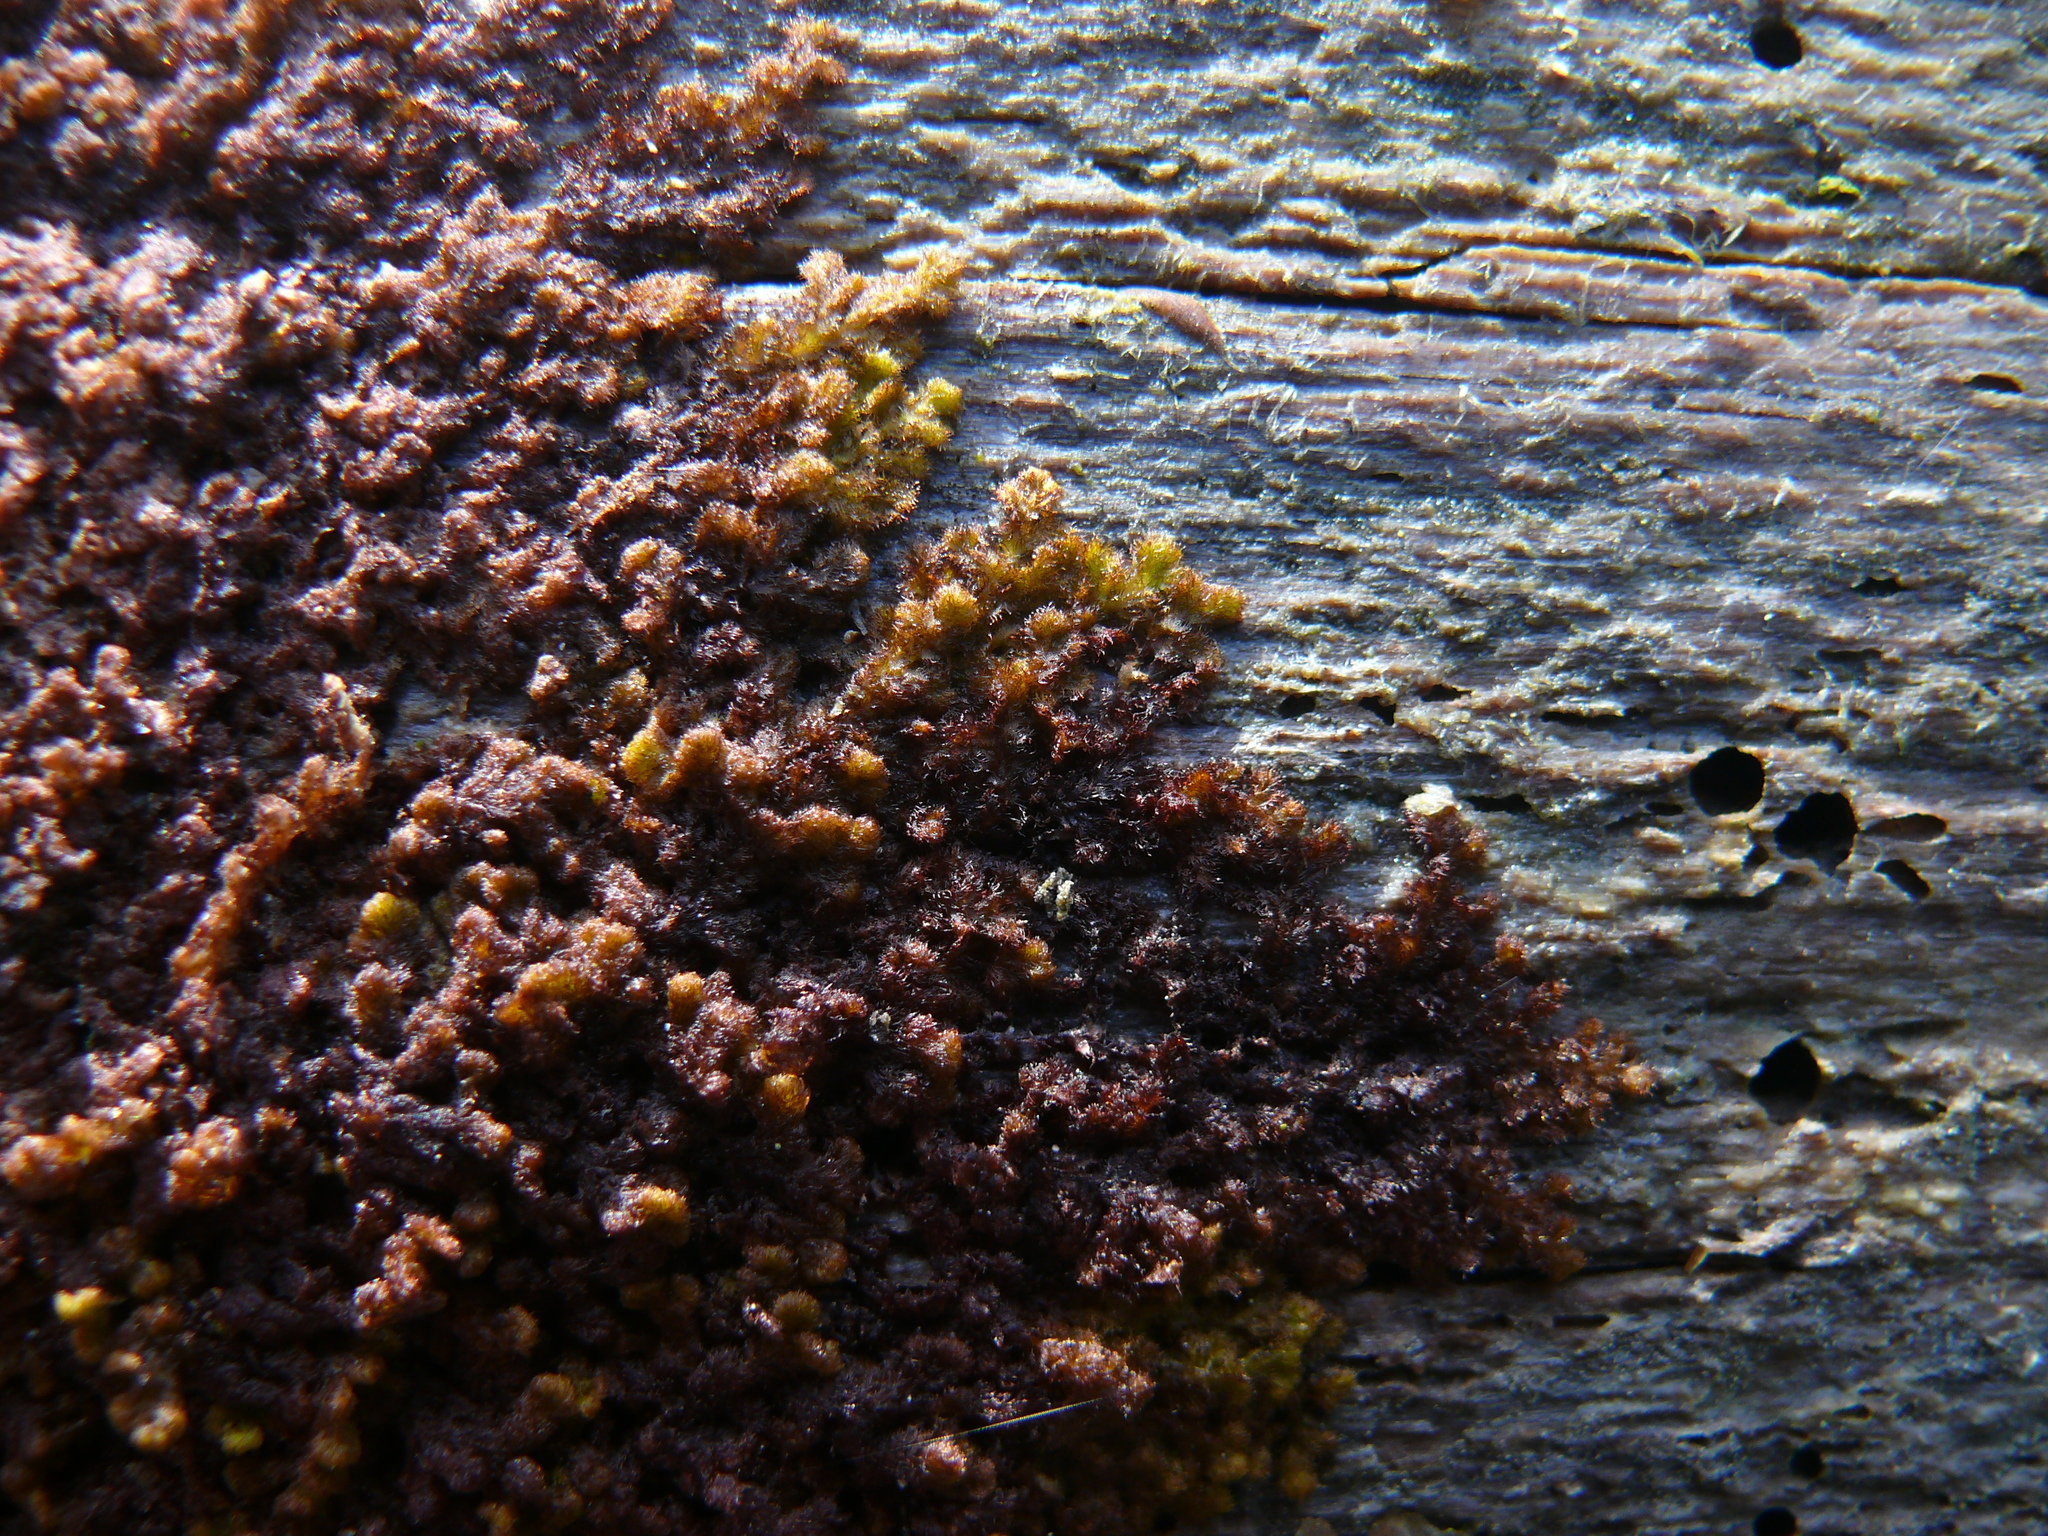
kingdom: Plantae
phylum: Marchantiophyta
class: Jungermanniopsida
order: Ptilidiales
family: Ptilidiaceae
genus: Ptilidium
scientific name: Ptilidium pulcherrimum
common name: Tree fringewort
